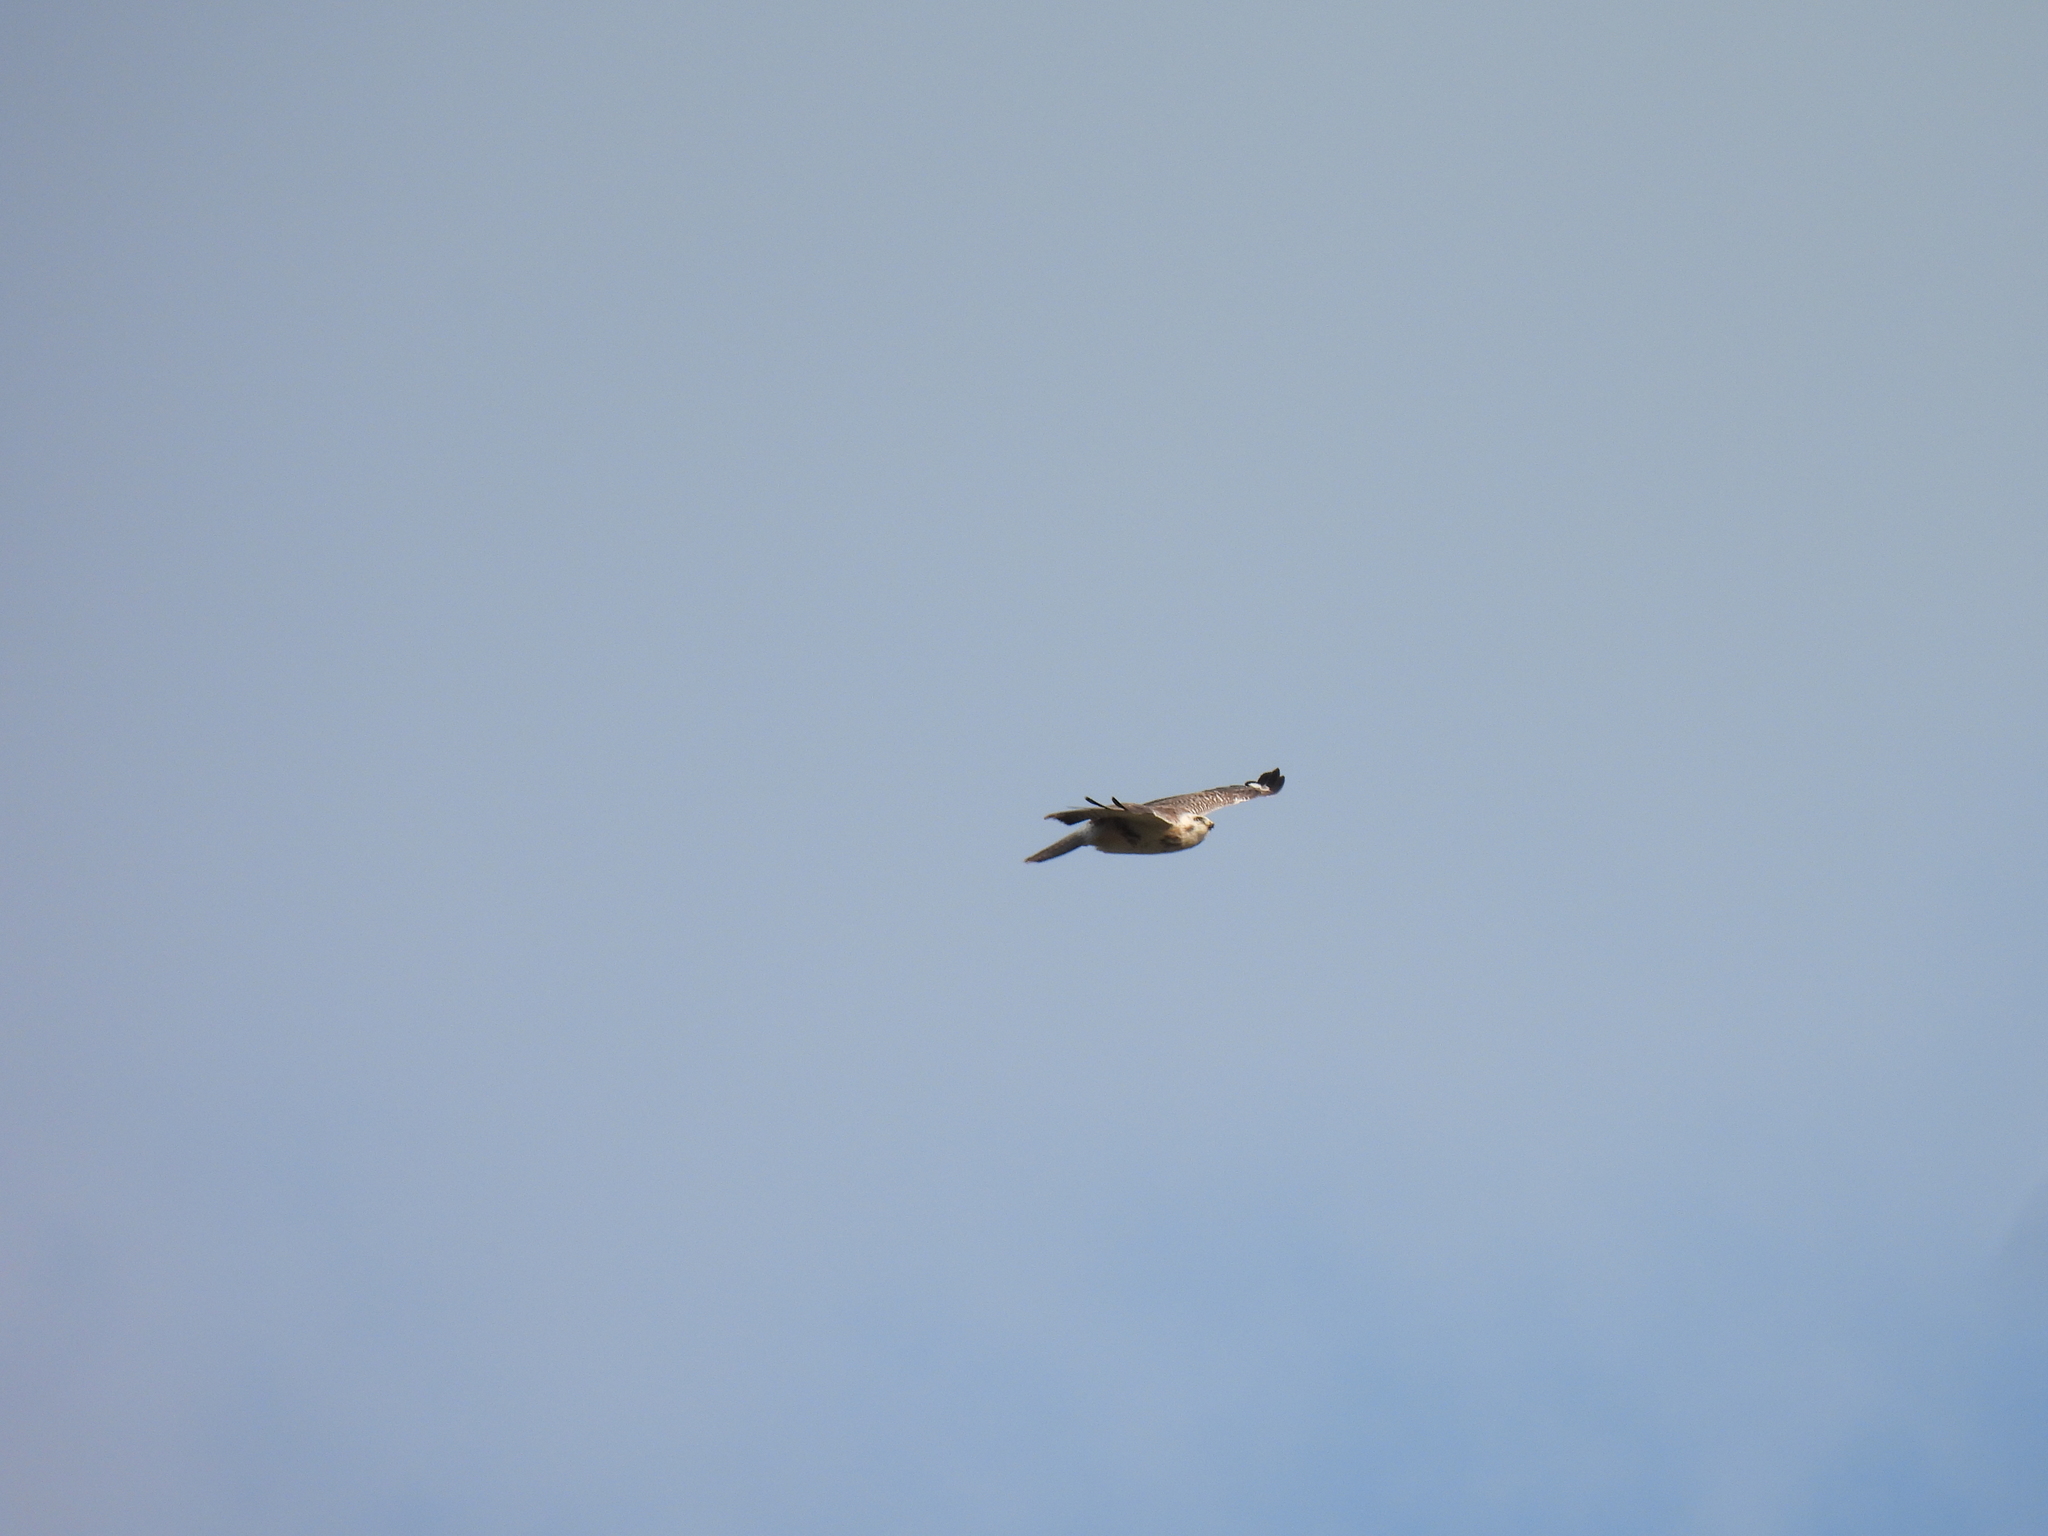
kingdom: Animalia
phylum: Chordata
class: Aves
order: Accipitriformes
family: Accipitridae
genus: Buteo
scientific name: Buteo buteo
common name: Common buzzard
